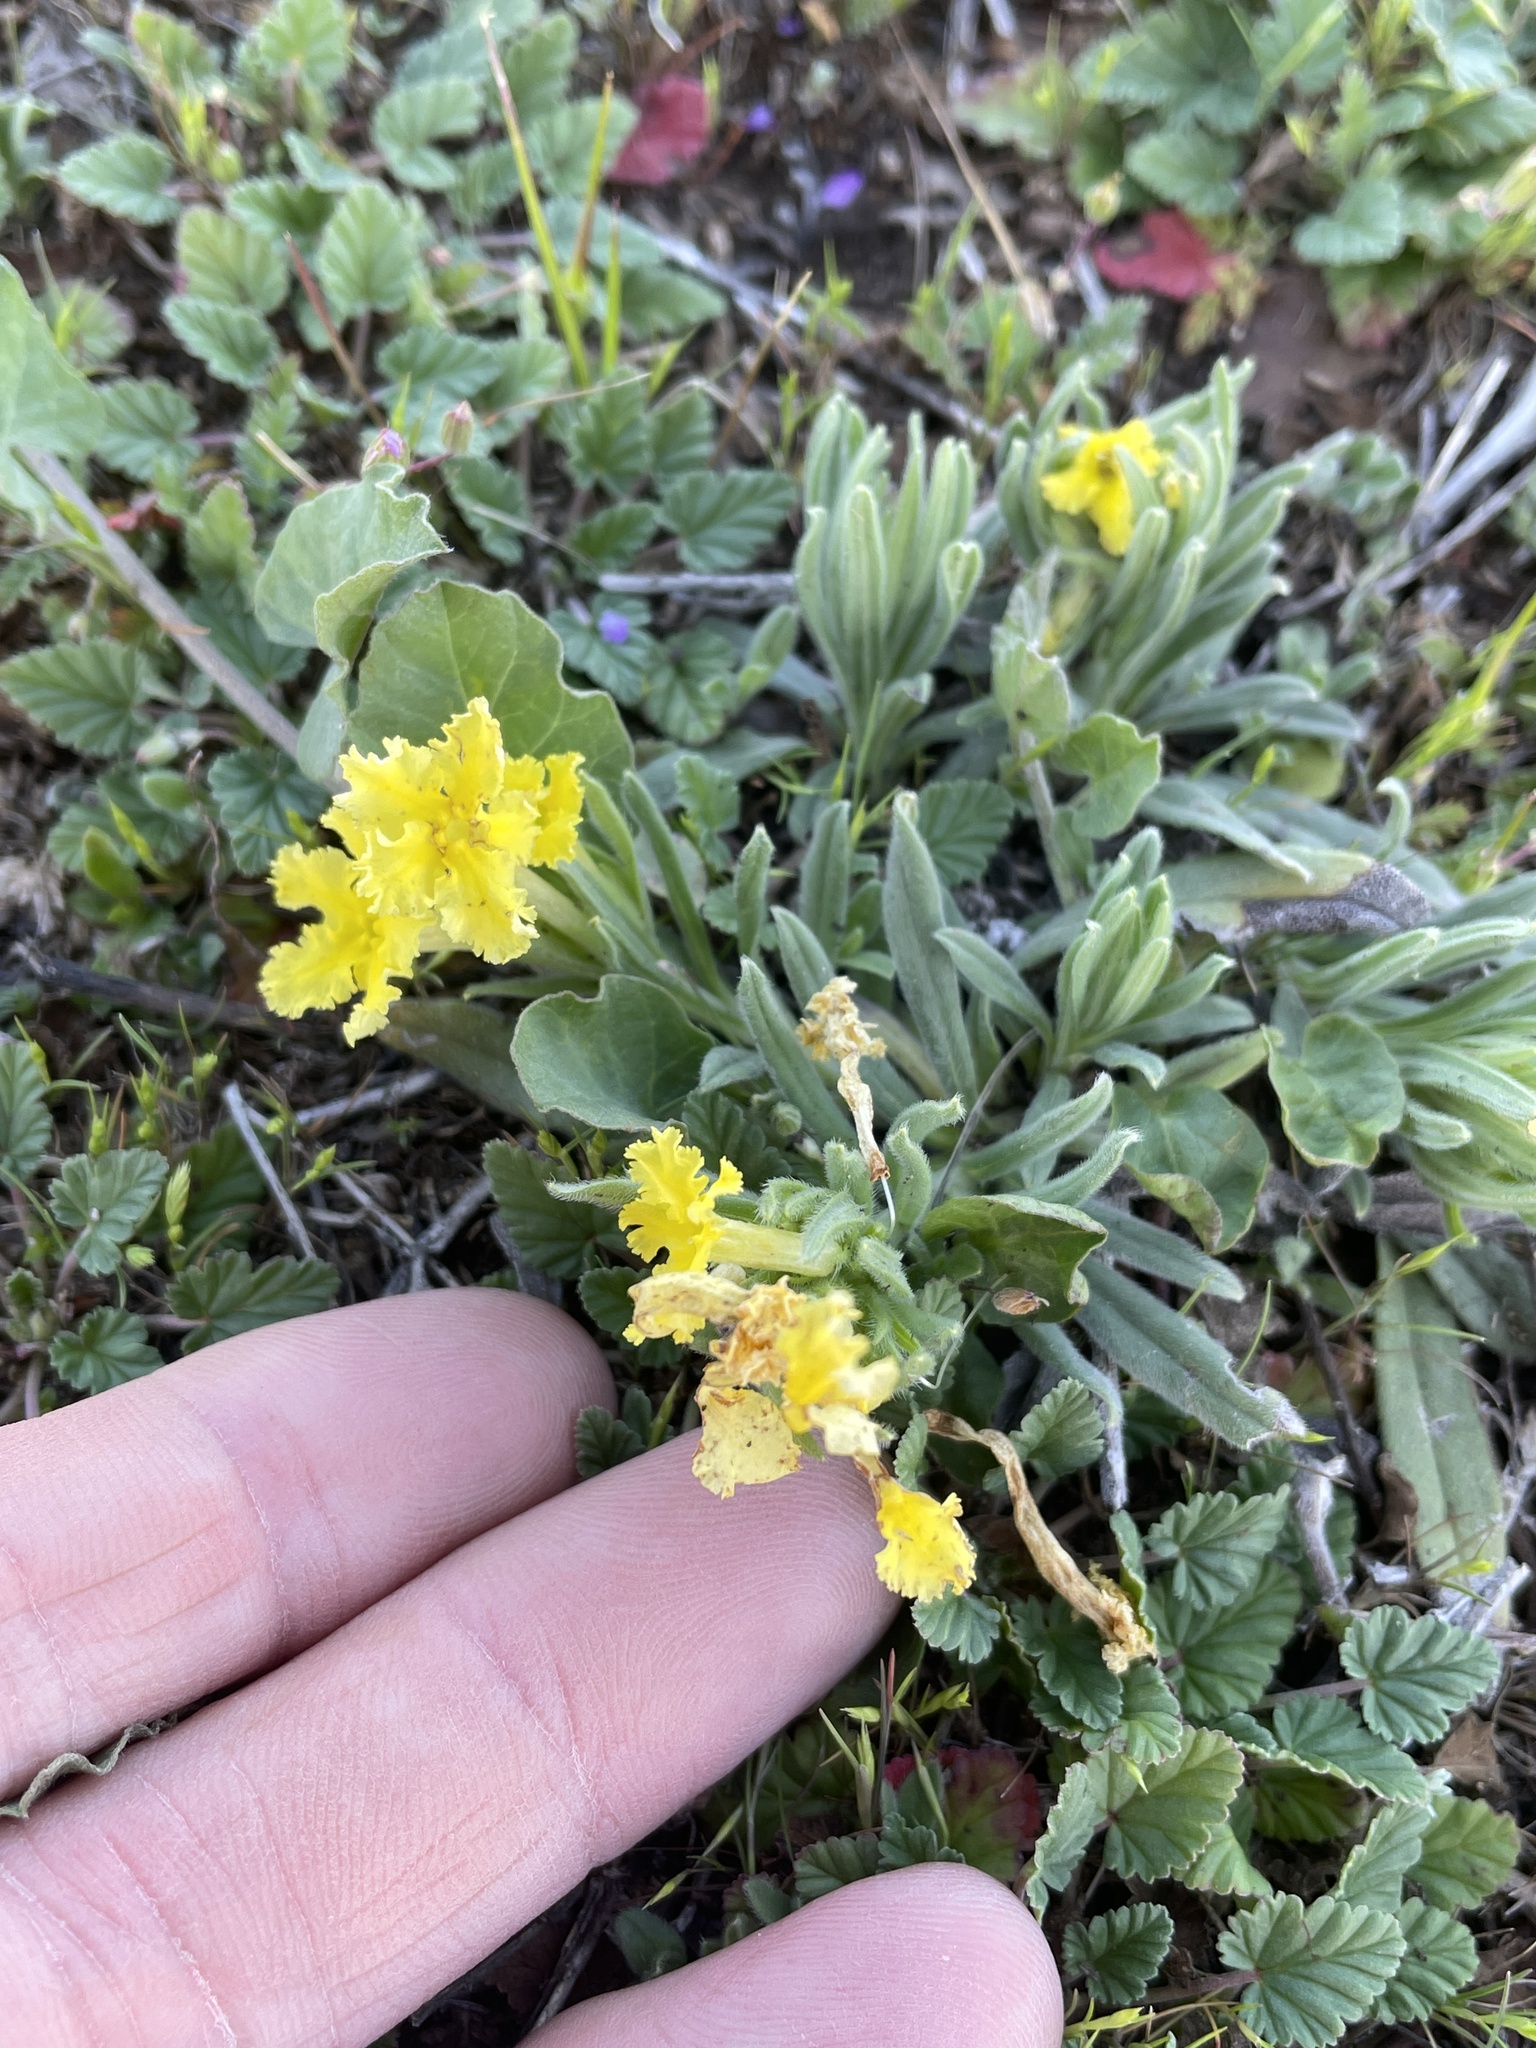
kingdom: Plantae
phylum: Tracheophyta
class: Magnoliopsida
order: Boraginales
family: Boraginaceae
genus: Lithospermum
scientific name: Lithospermum incisum
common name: Fringed gromwell
